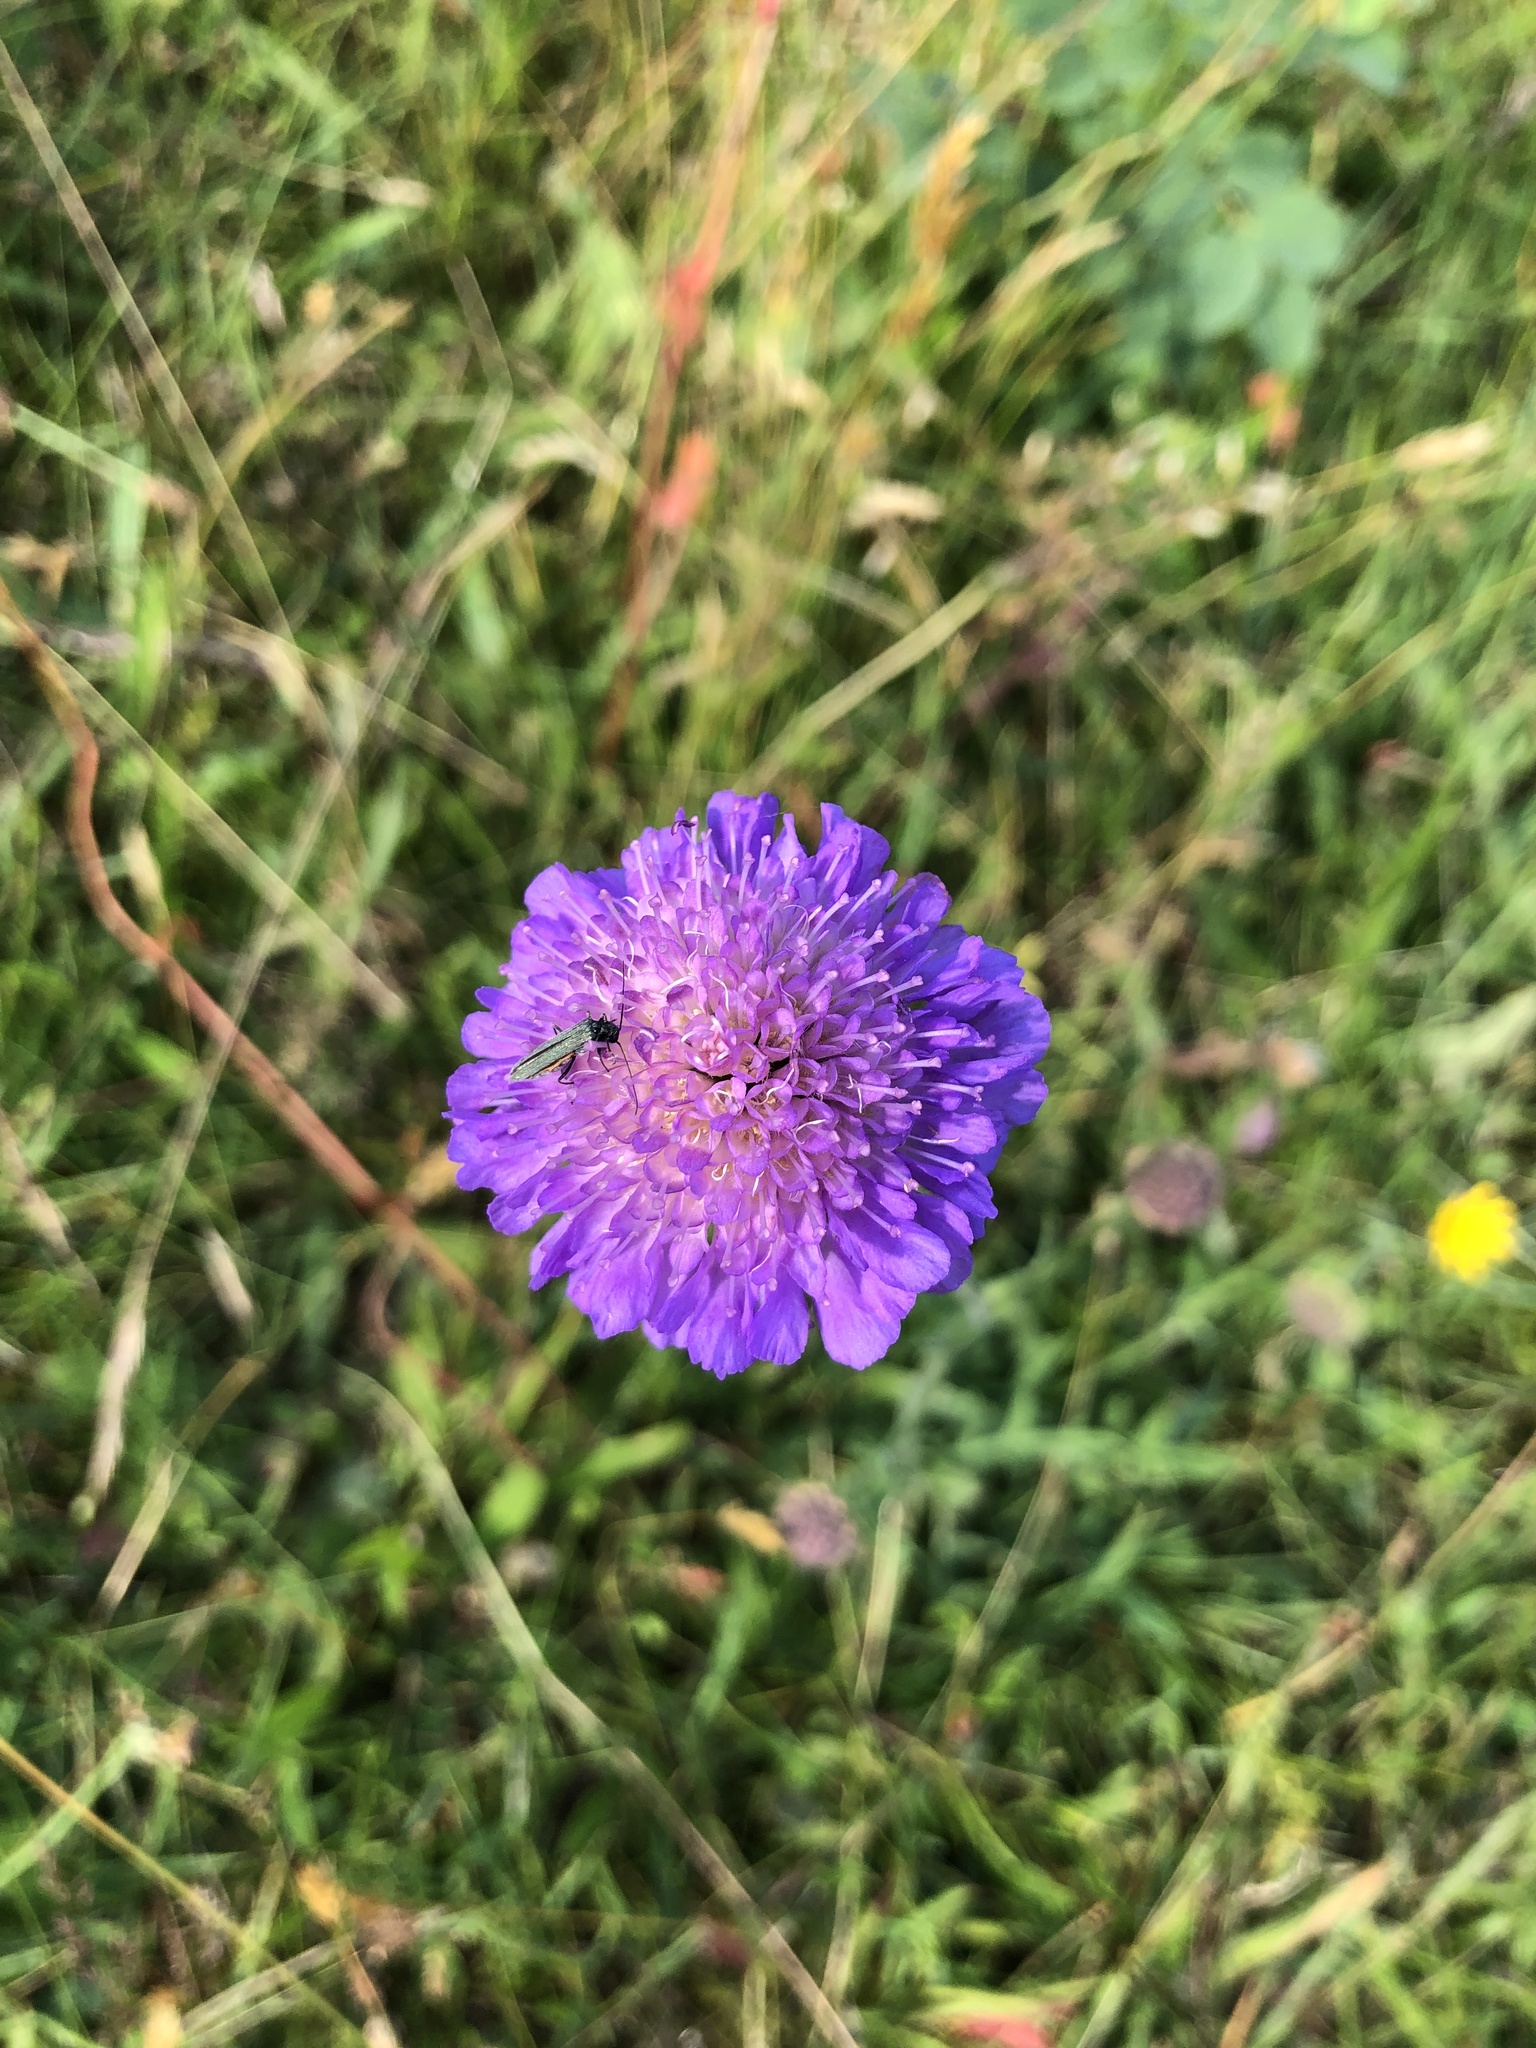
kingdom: Plantae
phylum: Tracheophyta
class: Magnoliopsida
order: Dipsacales
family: Caprifoliaceae
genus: Knautia
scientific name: Knautia arvensis
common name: Field scabiosa
